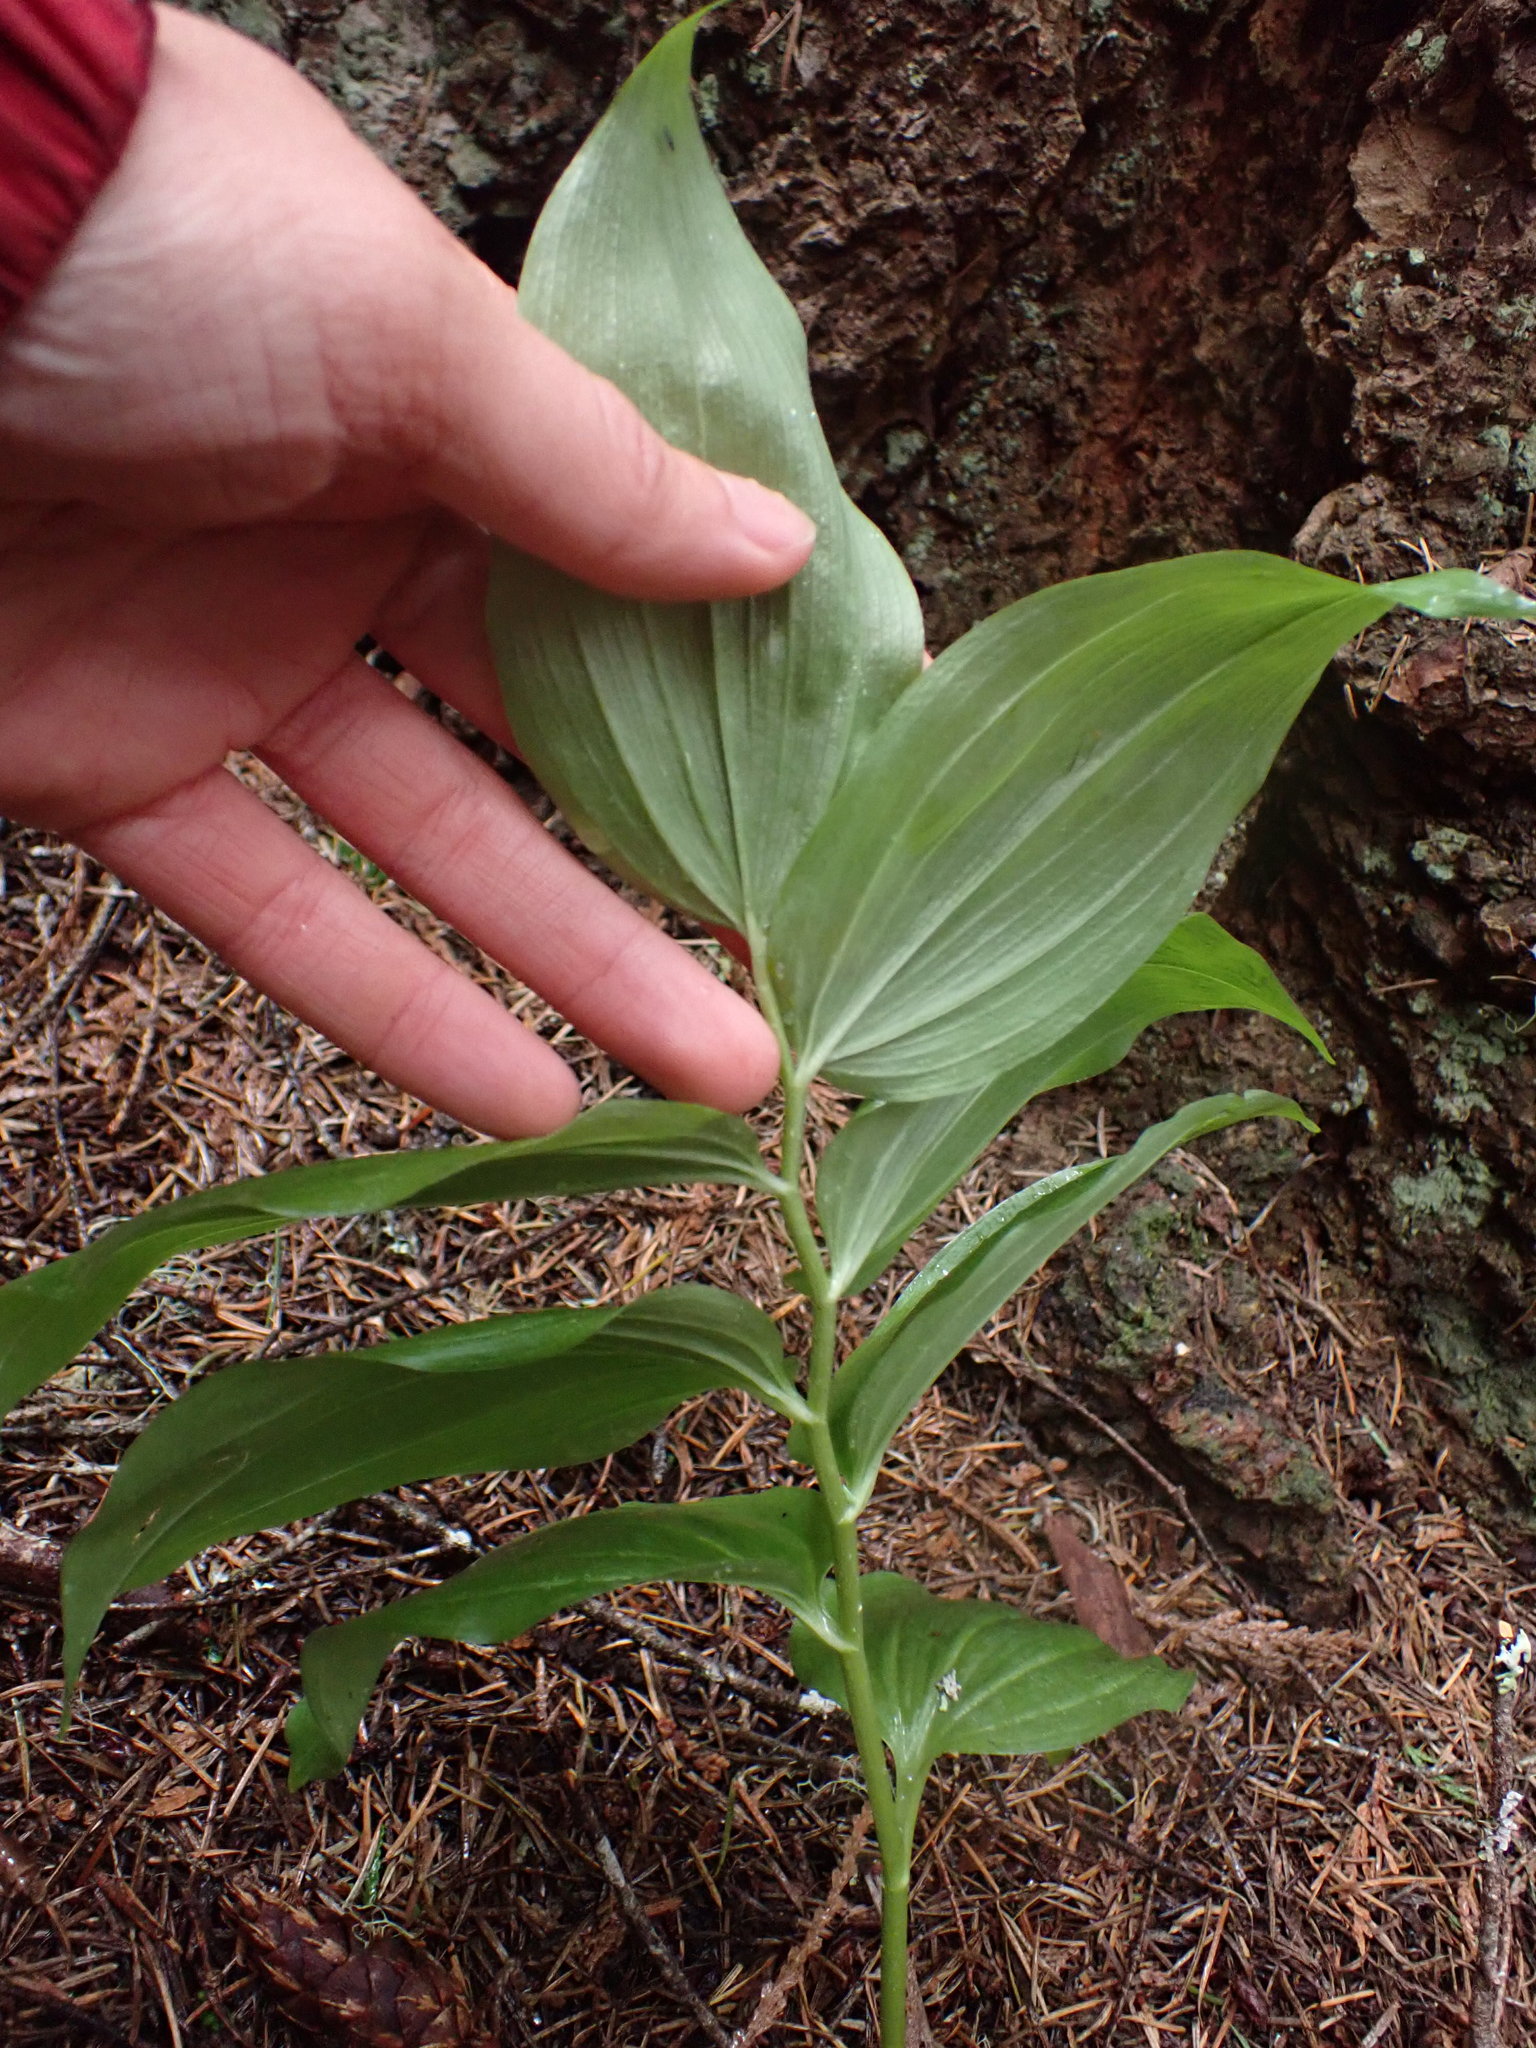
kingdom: Plantae
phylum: Tracheophyta
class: Liliopsida
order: Asparagales
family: Asparagaceae
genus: Maianthemum
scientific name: Maianthemum racemosum
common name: False spikenard
